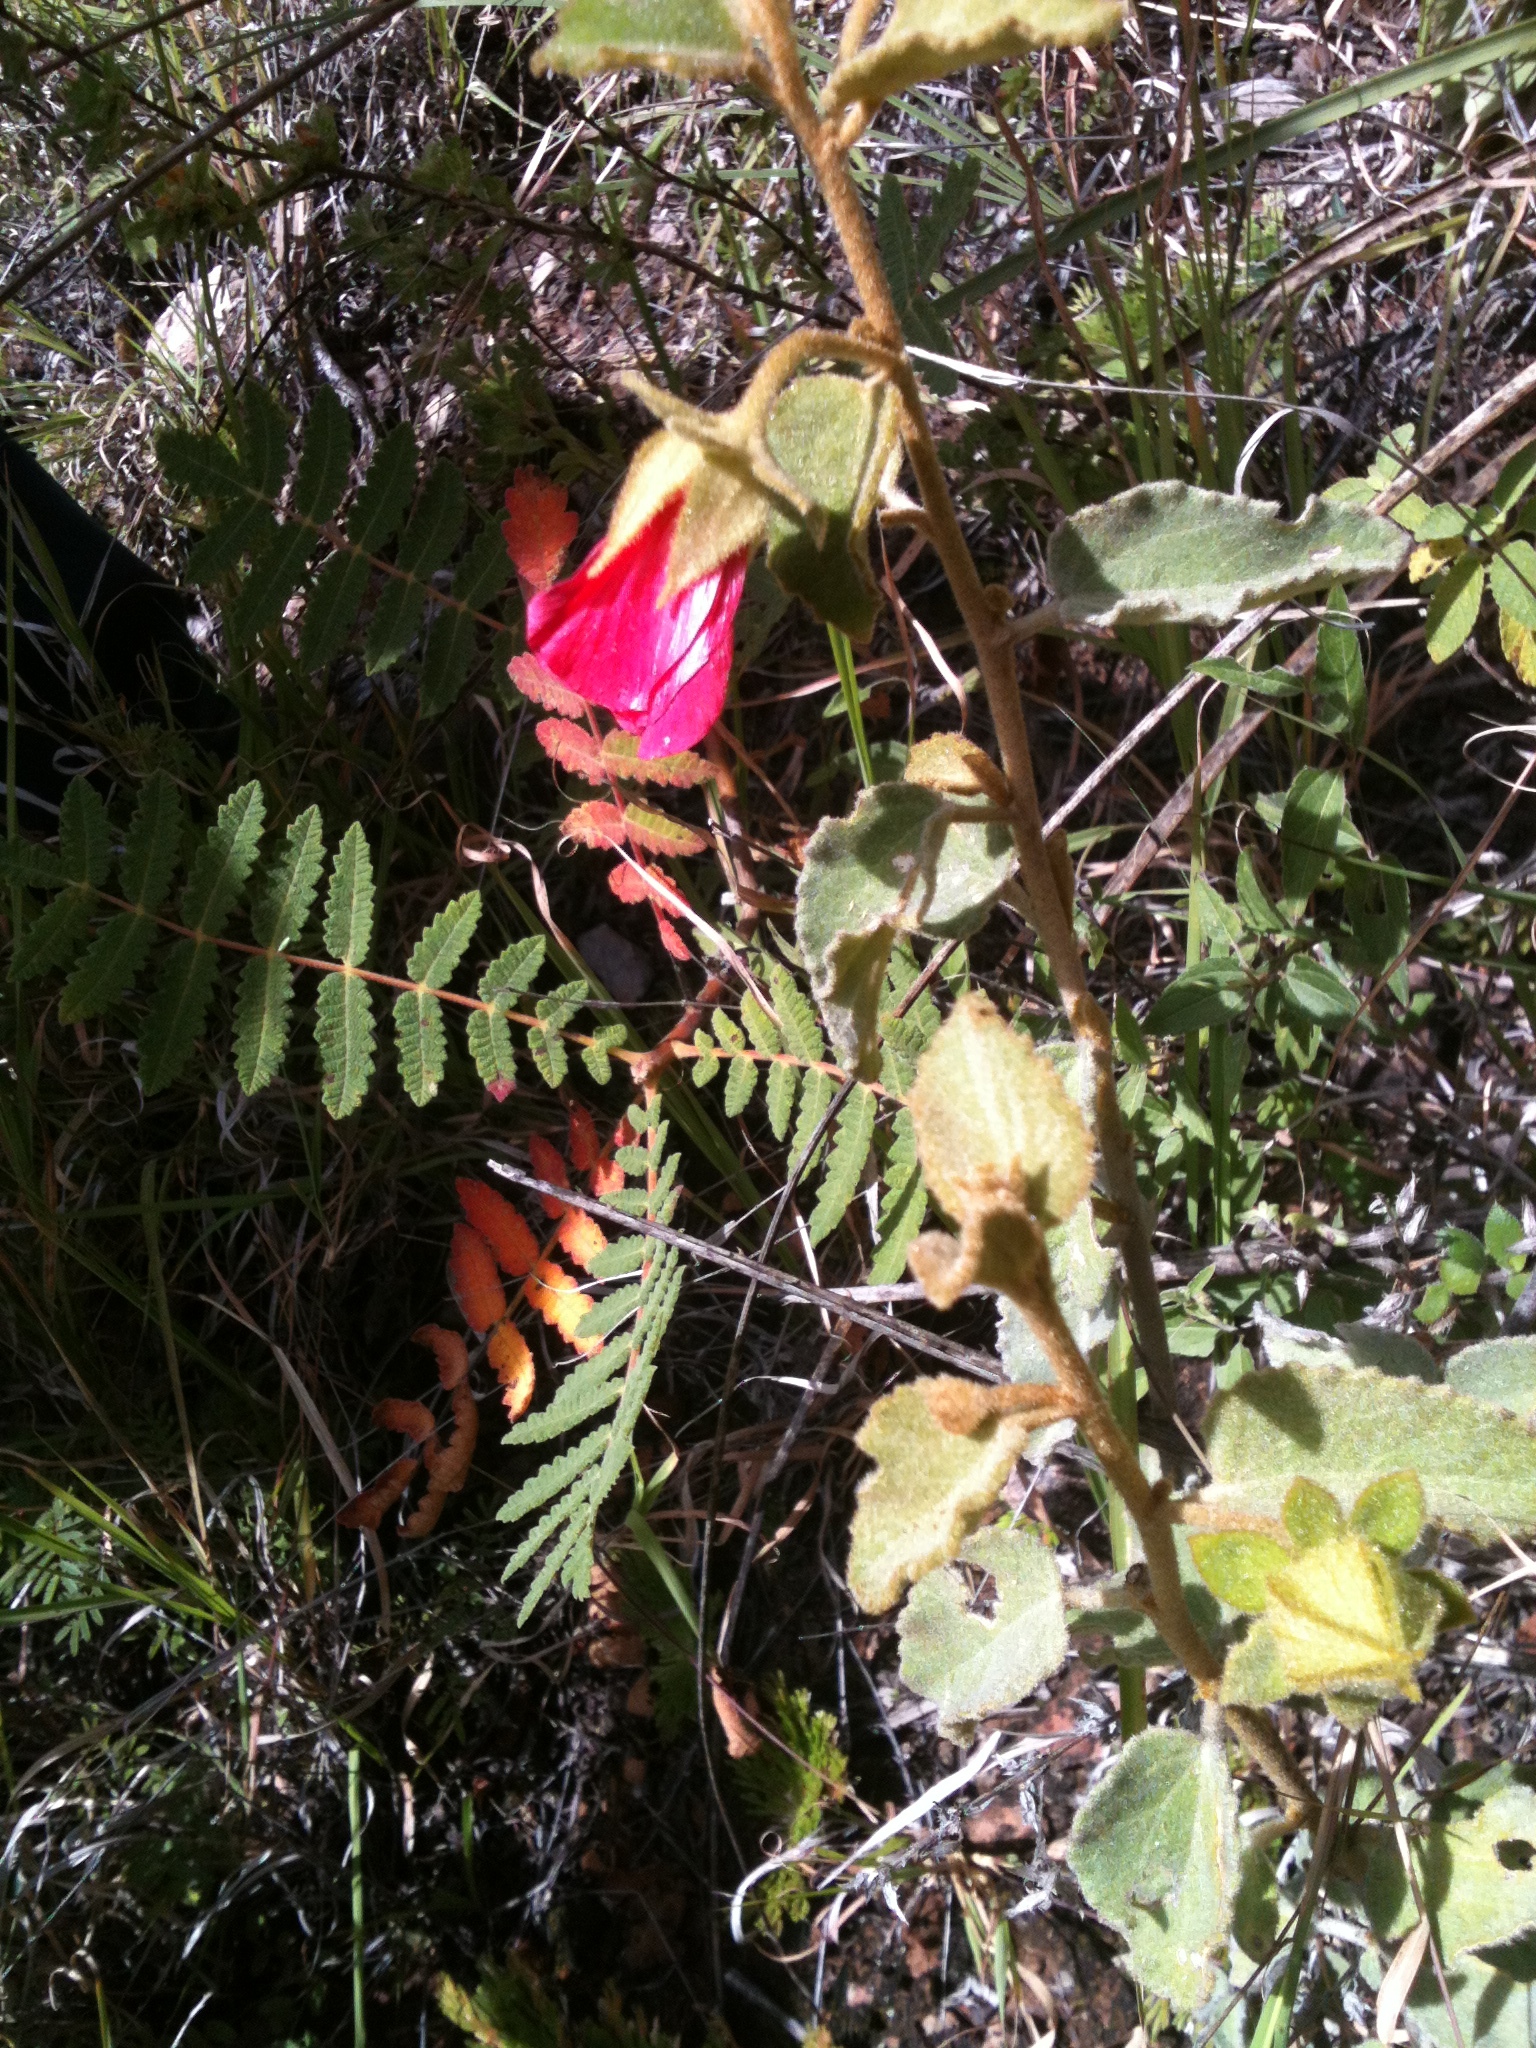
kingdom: Plantae
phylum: Tracheophyta
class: Magnoliopsida
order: Malvales
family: Malvaceae
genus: Hibiscus
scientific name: Hibiscus longifilus
